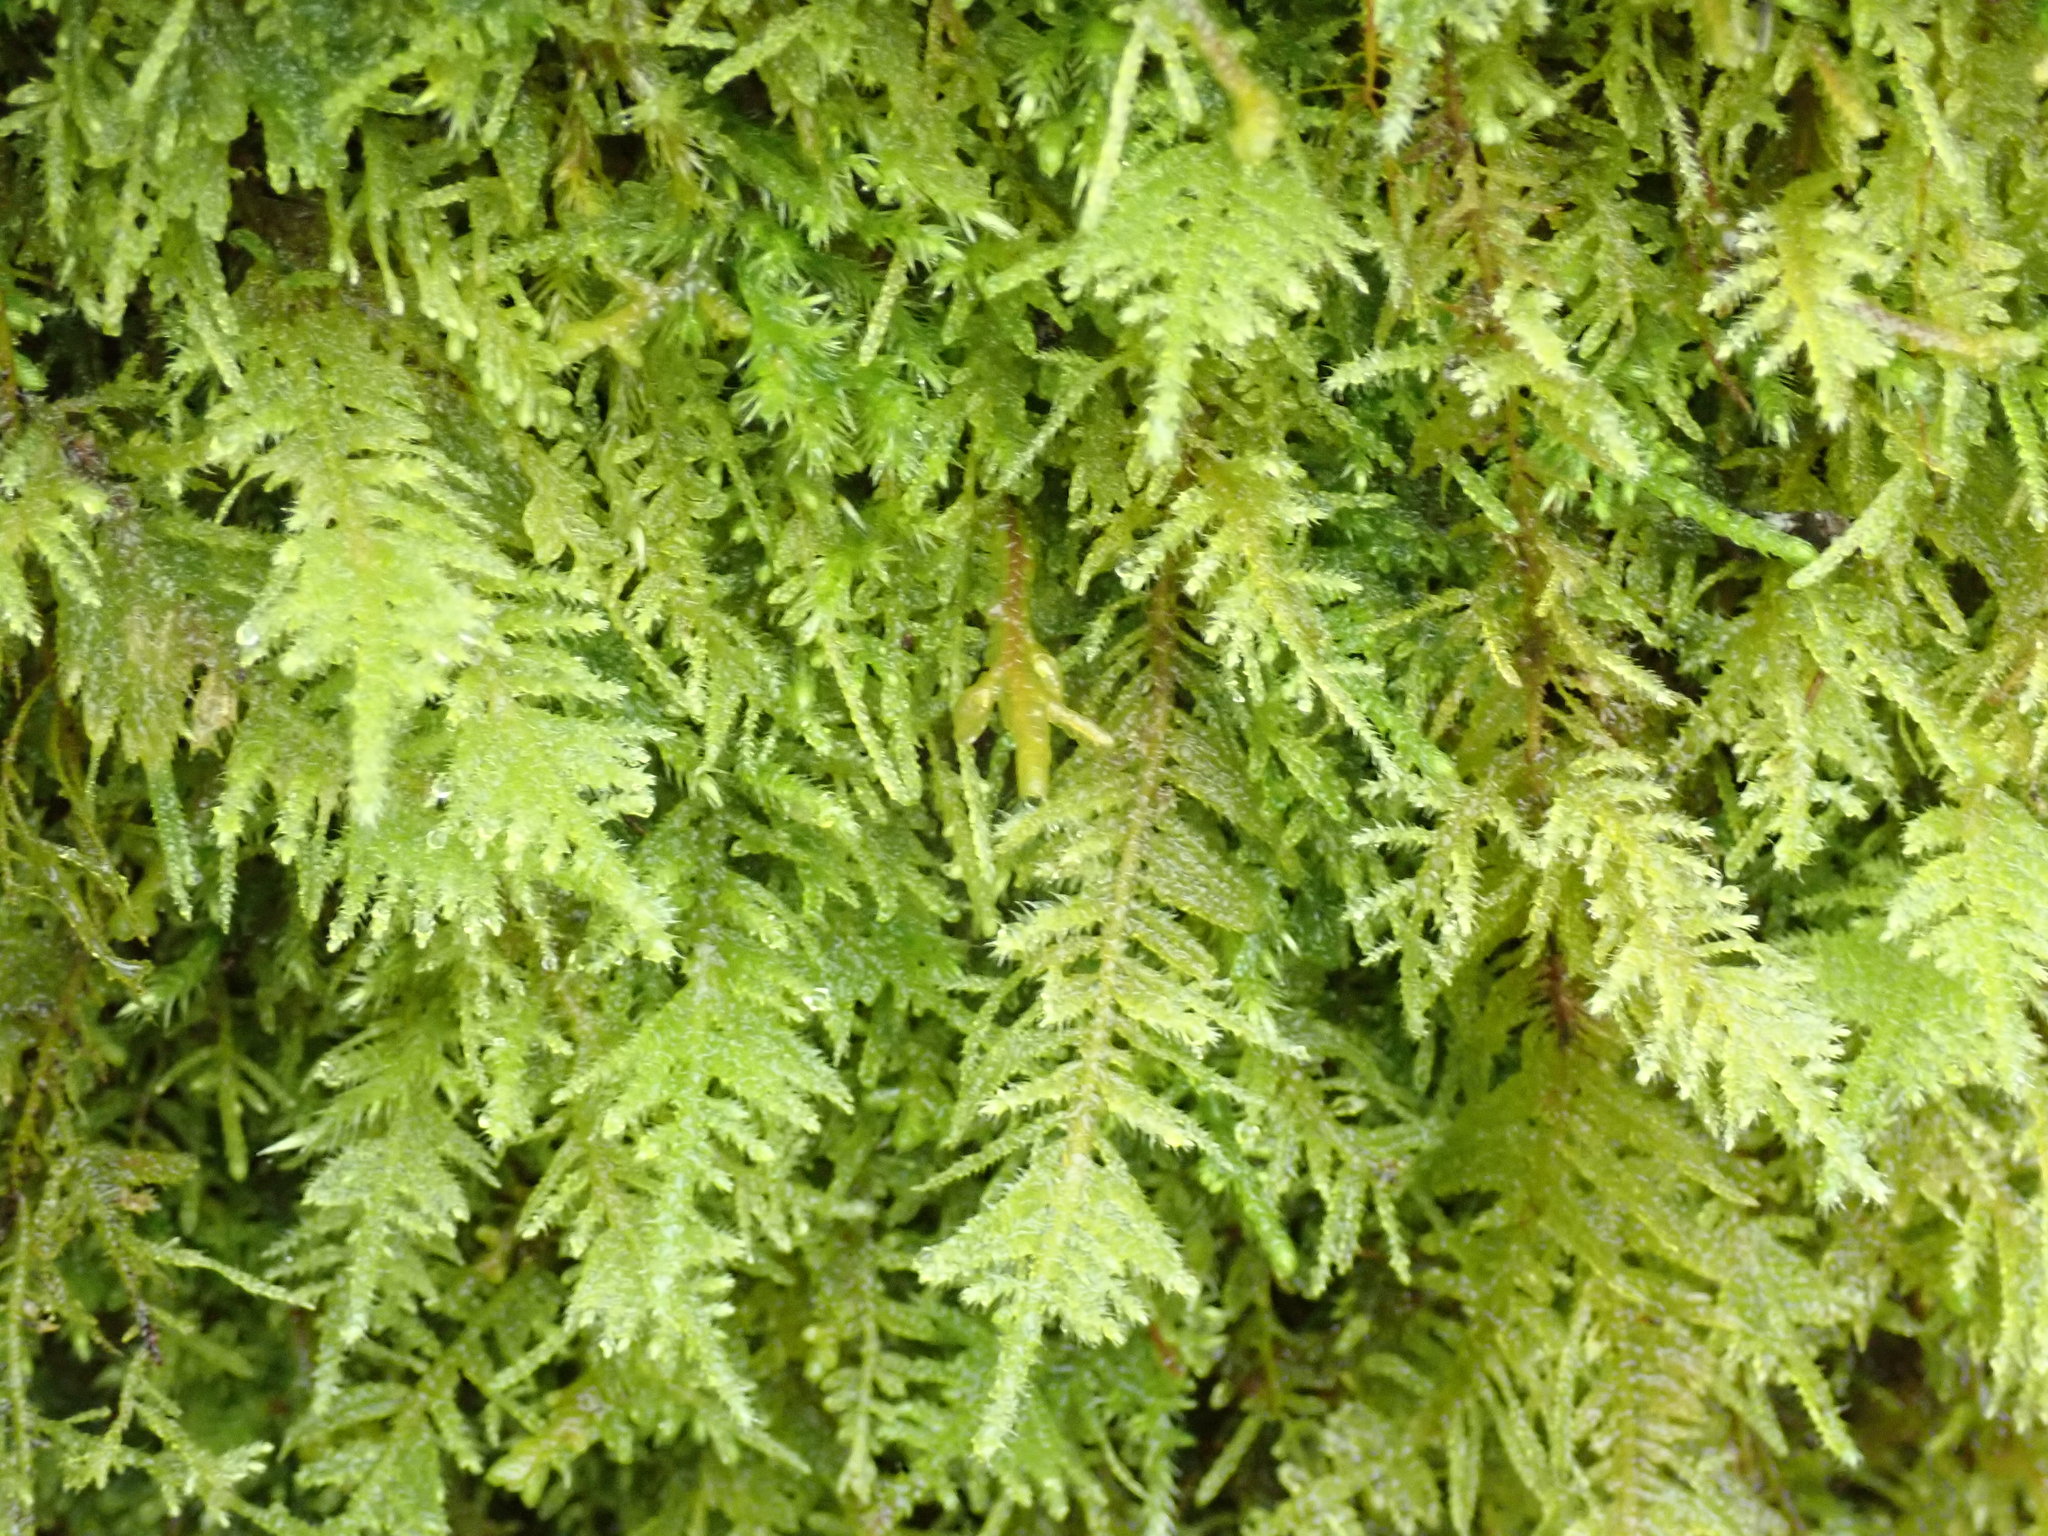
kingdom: Plantae
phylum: Bryophyta
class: Bryopsida
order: Hypnales
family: Brachytheciaceae
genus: Kindbergia
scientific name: Kindbergia oregana
